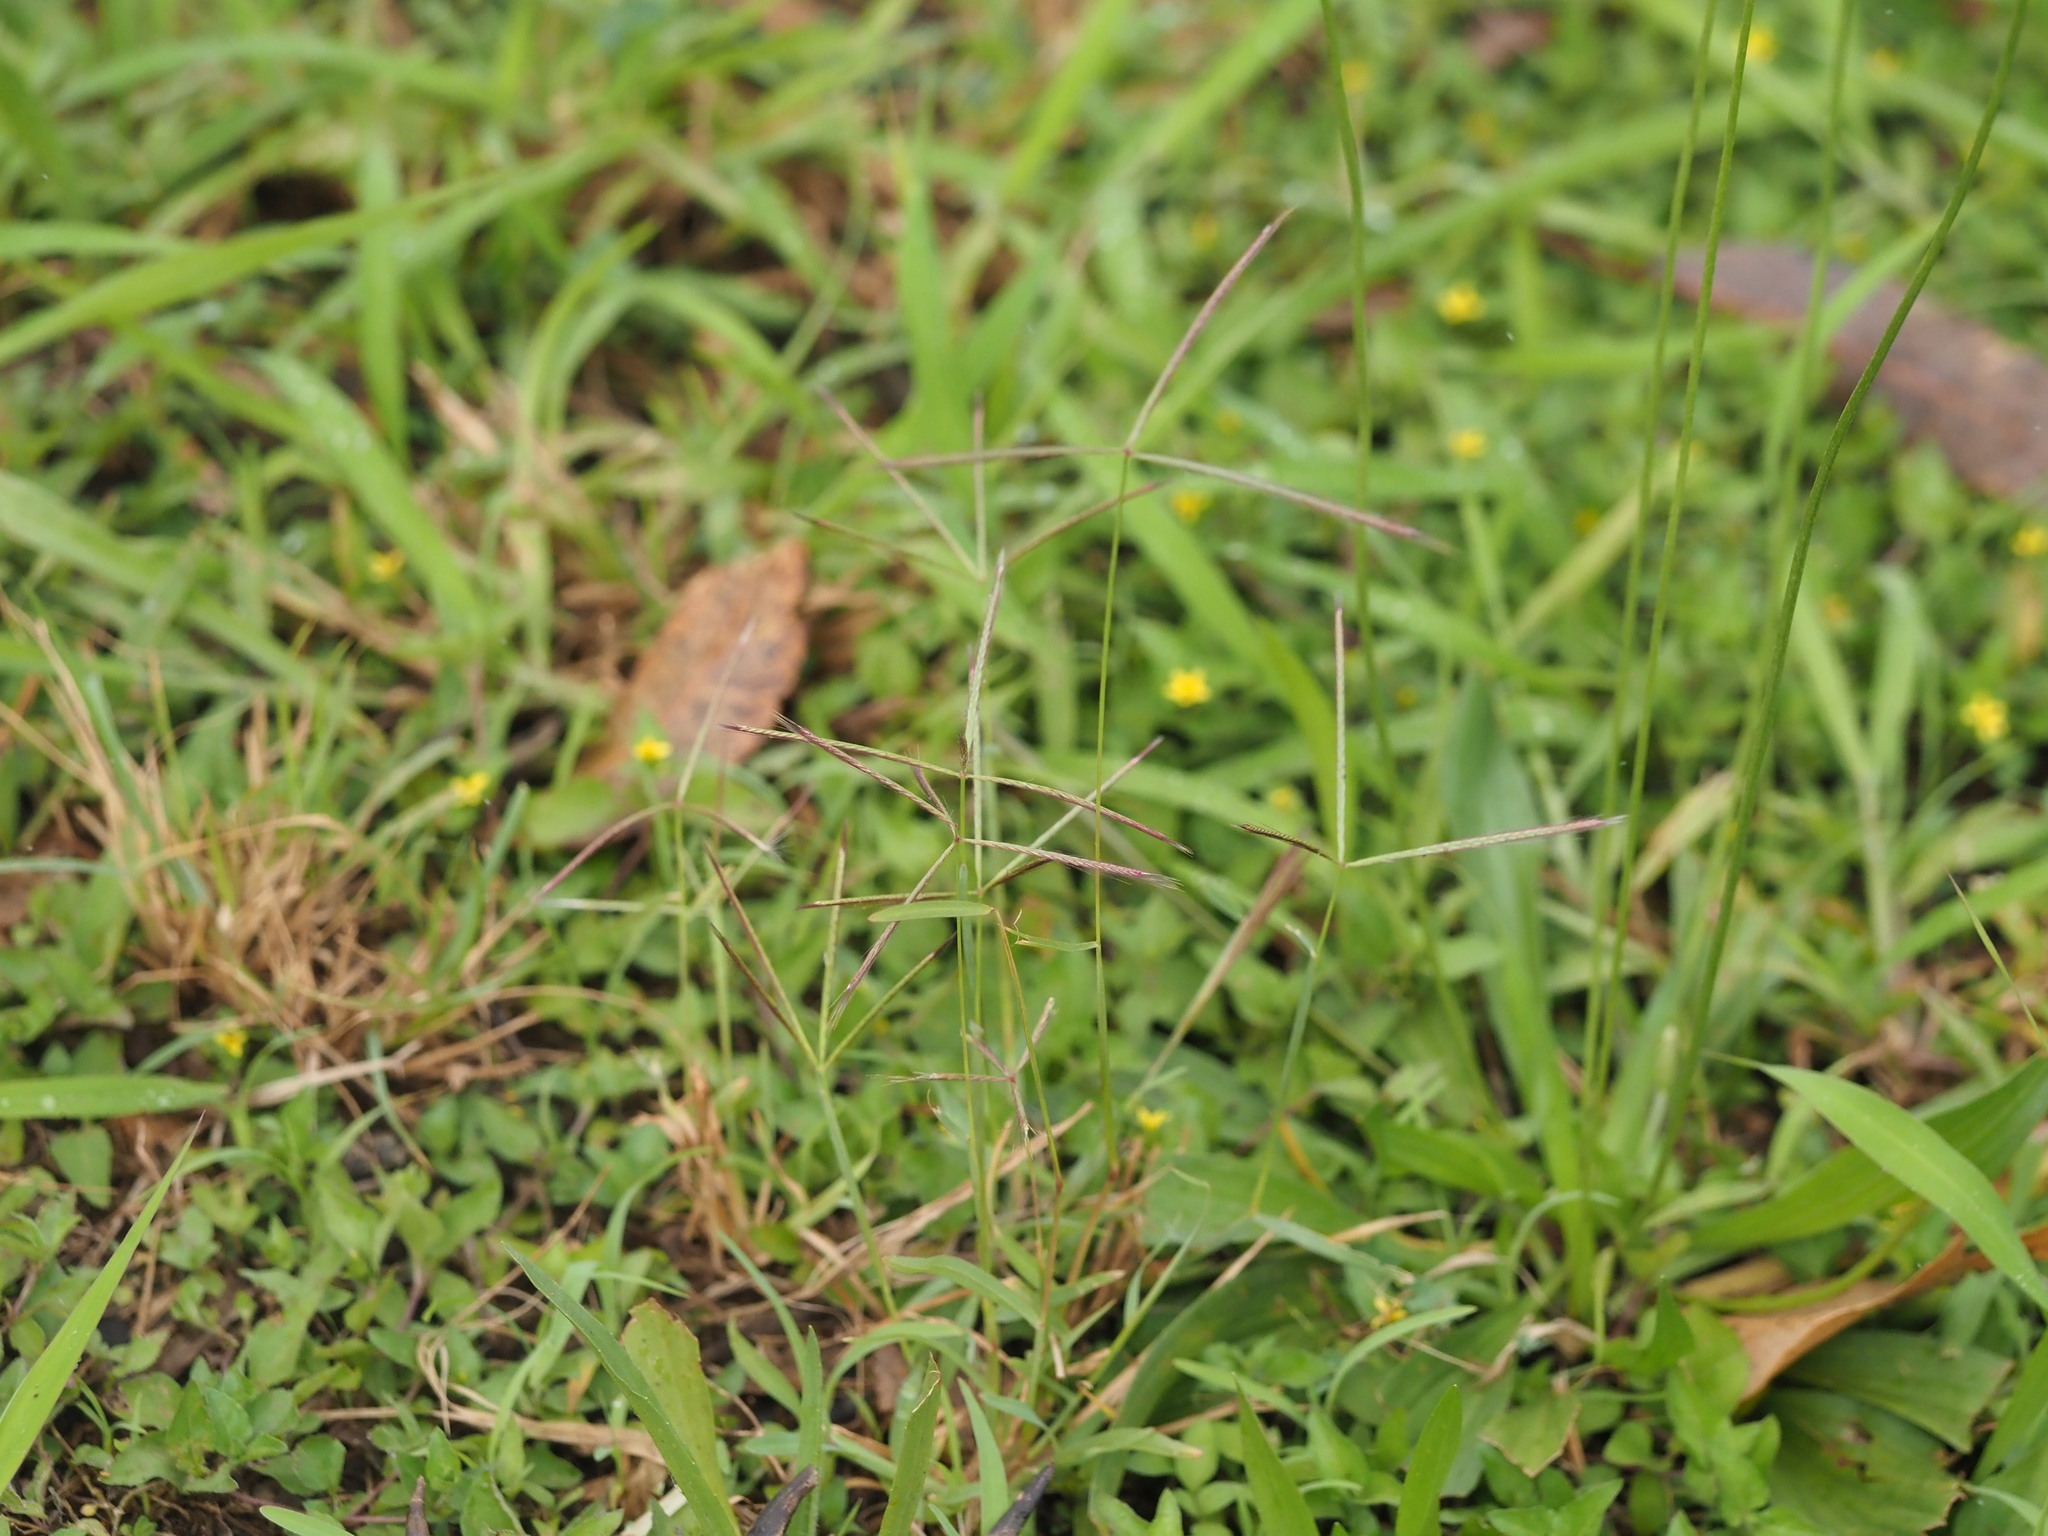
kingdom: Plantae
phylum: Tracheophyta
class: Liliopsida
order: Poales
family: Poaceae
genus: Chloris
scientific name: Chloris pycnothrix
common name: Spiderweb chloris
